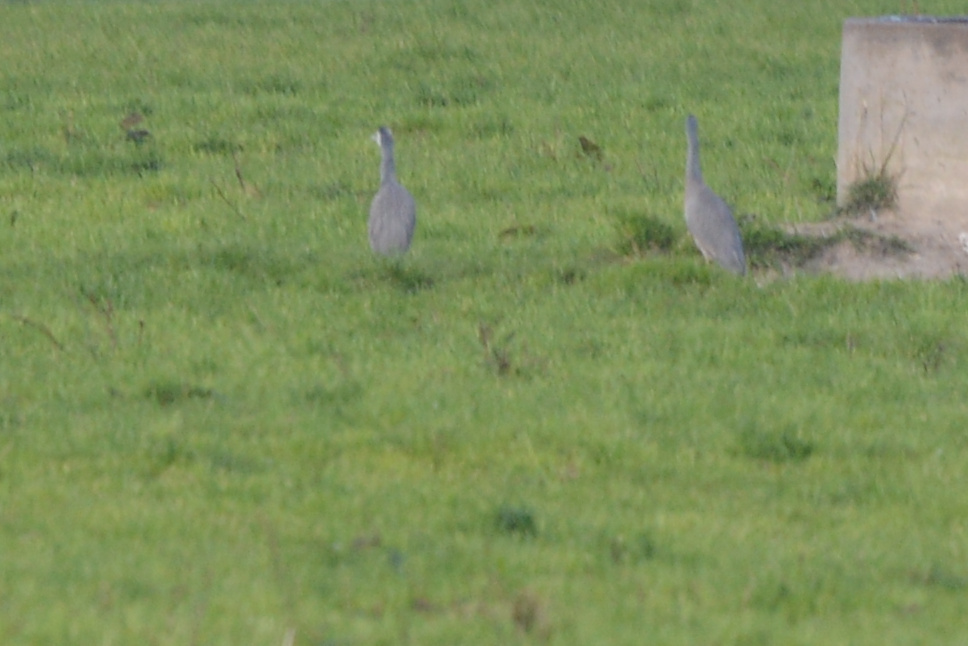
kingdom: Animalia
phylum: Chordata
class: Aves
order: Pelecaniformes
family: Ardeidae
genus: Egretta
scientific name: Egretta novaehollandiae
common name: White-faced heron
